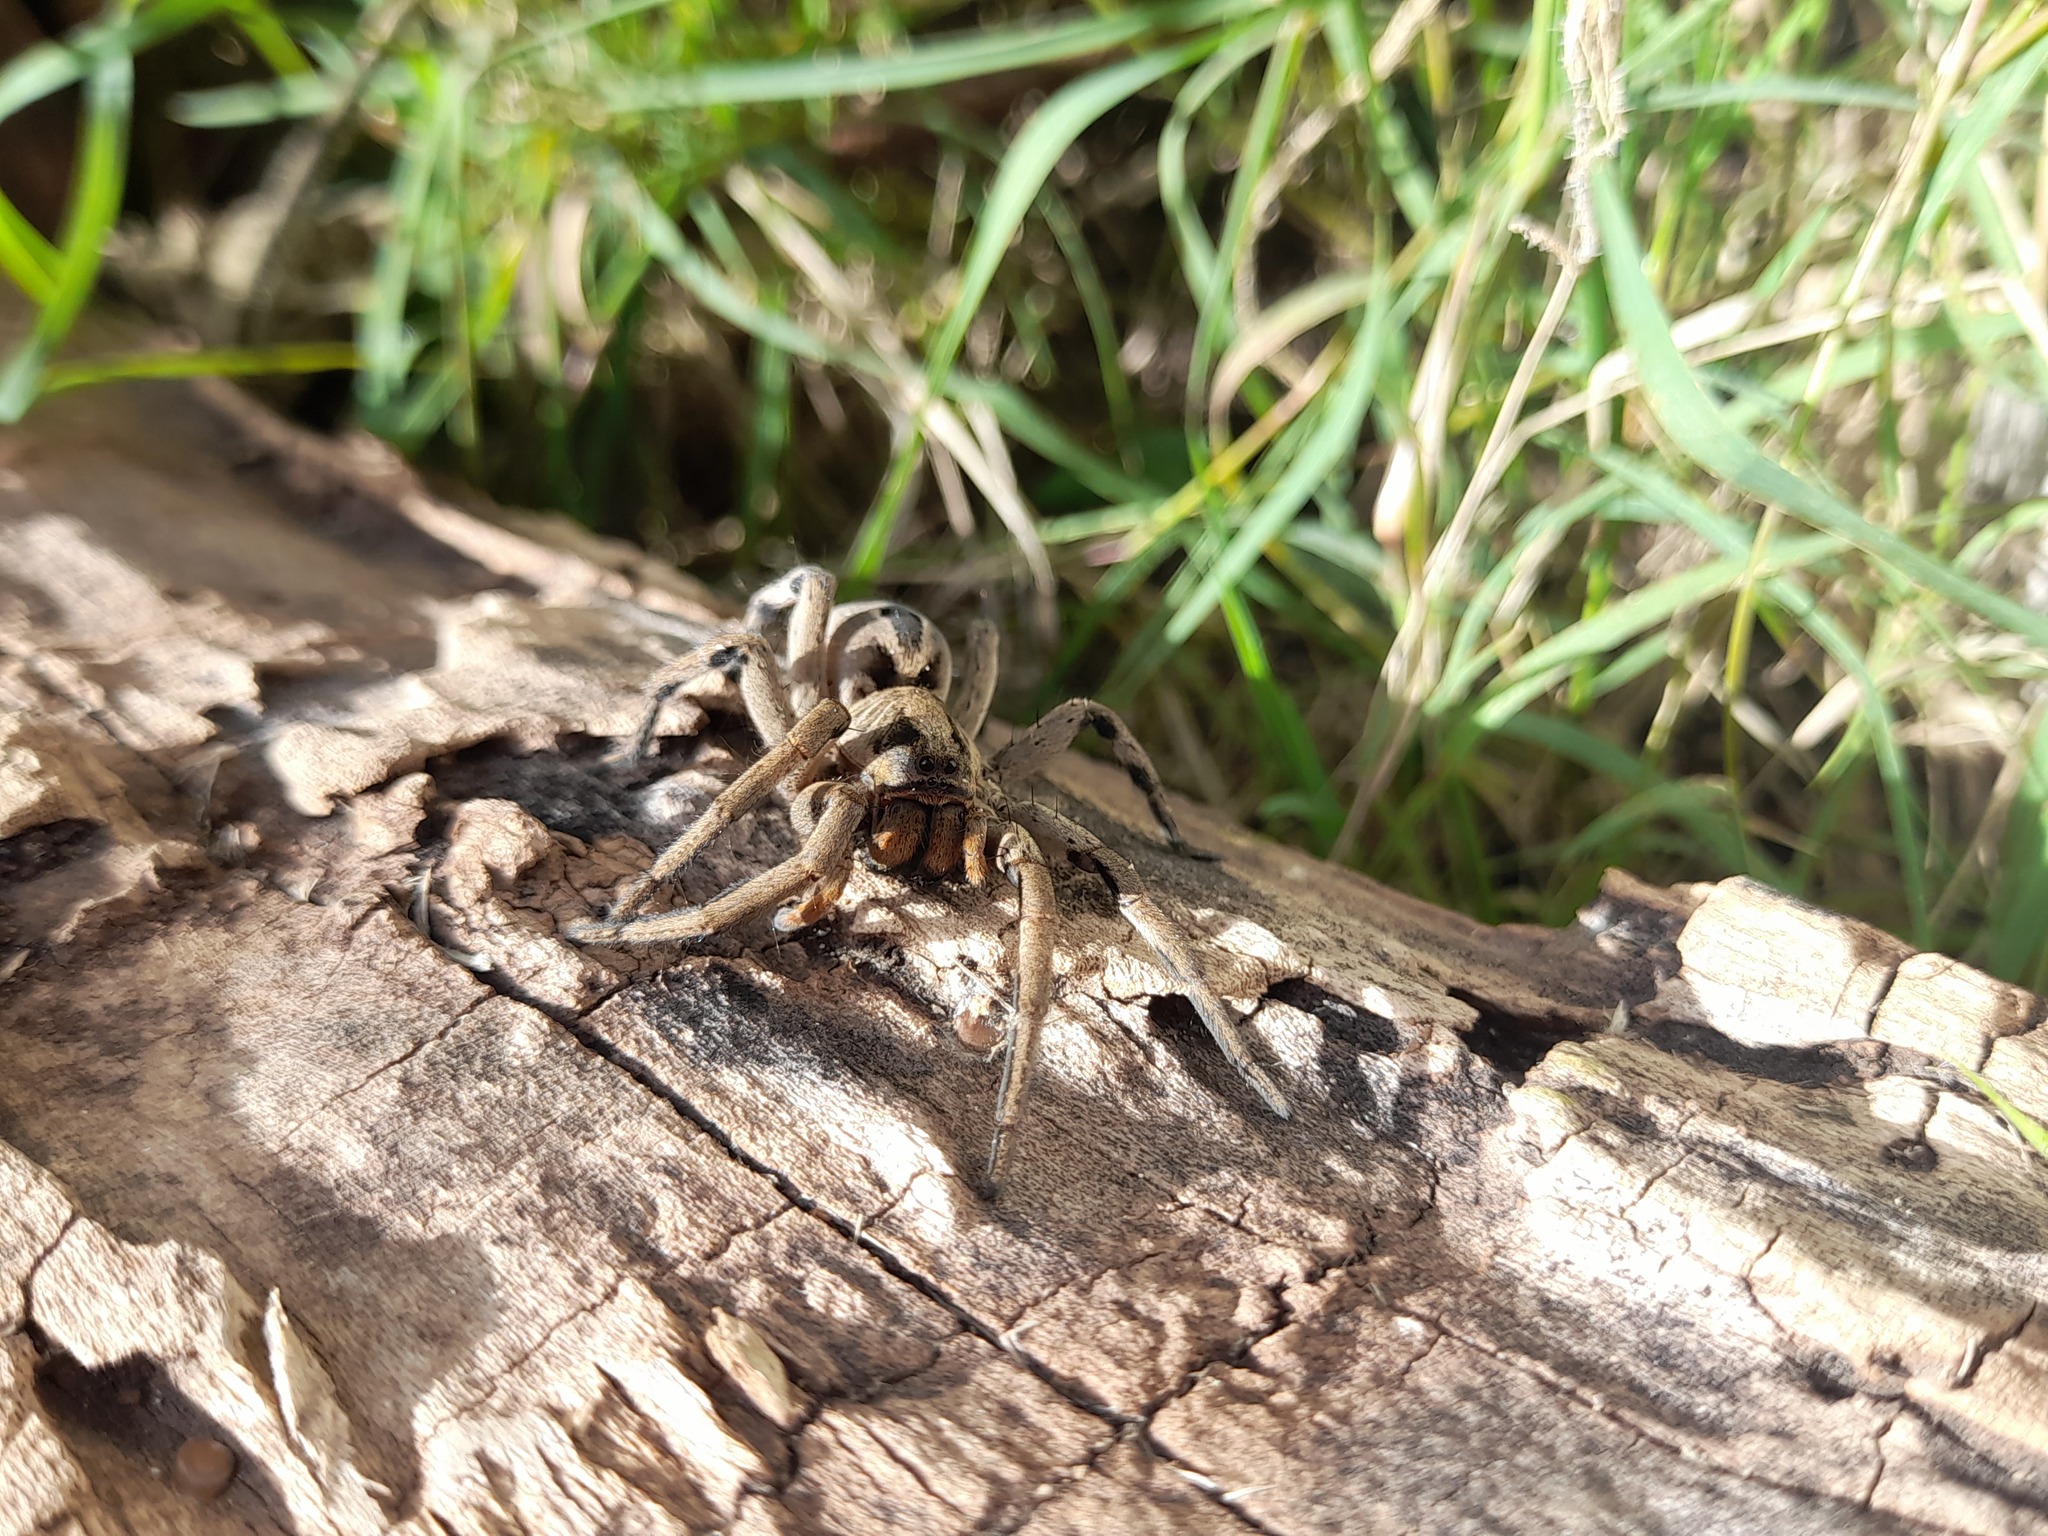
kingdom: Animalia
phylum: Arthropoda
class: Arachnida
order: Araneae
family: Lycosidae
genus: Lycosa
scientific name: Lycosa erythrognatha
